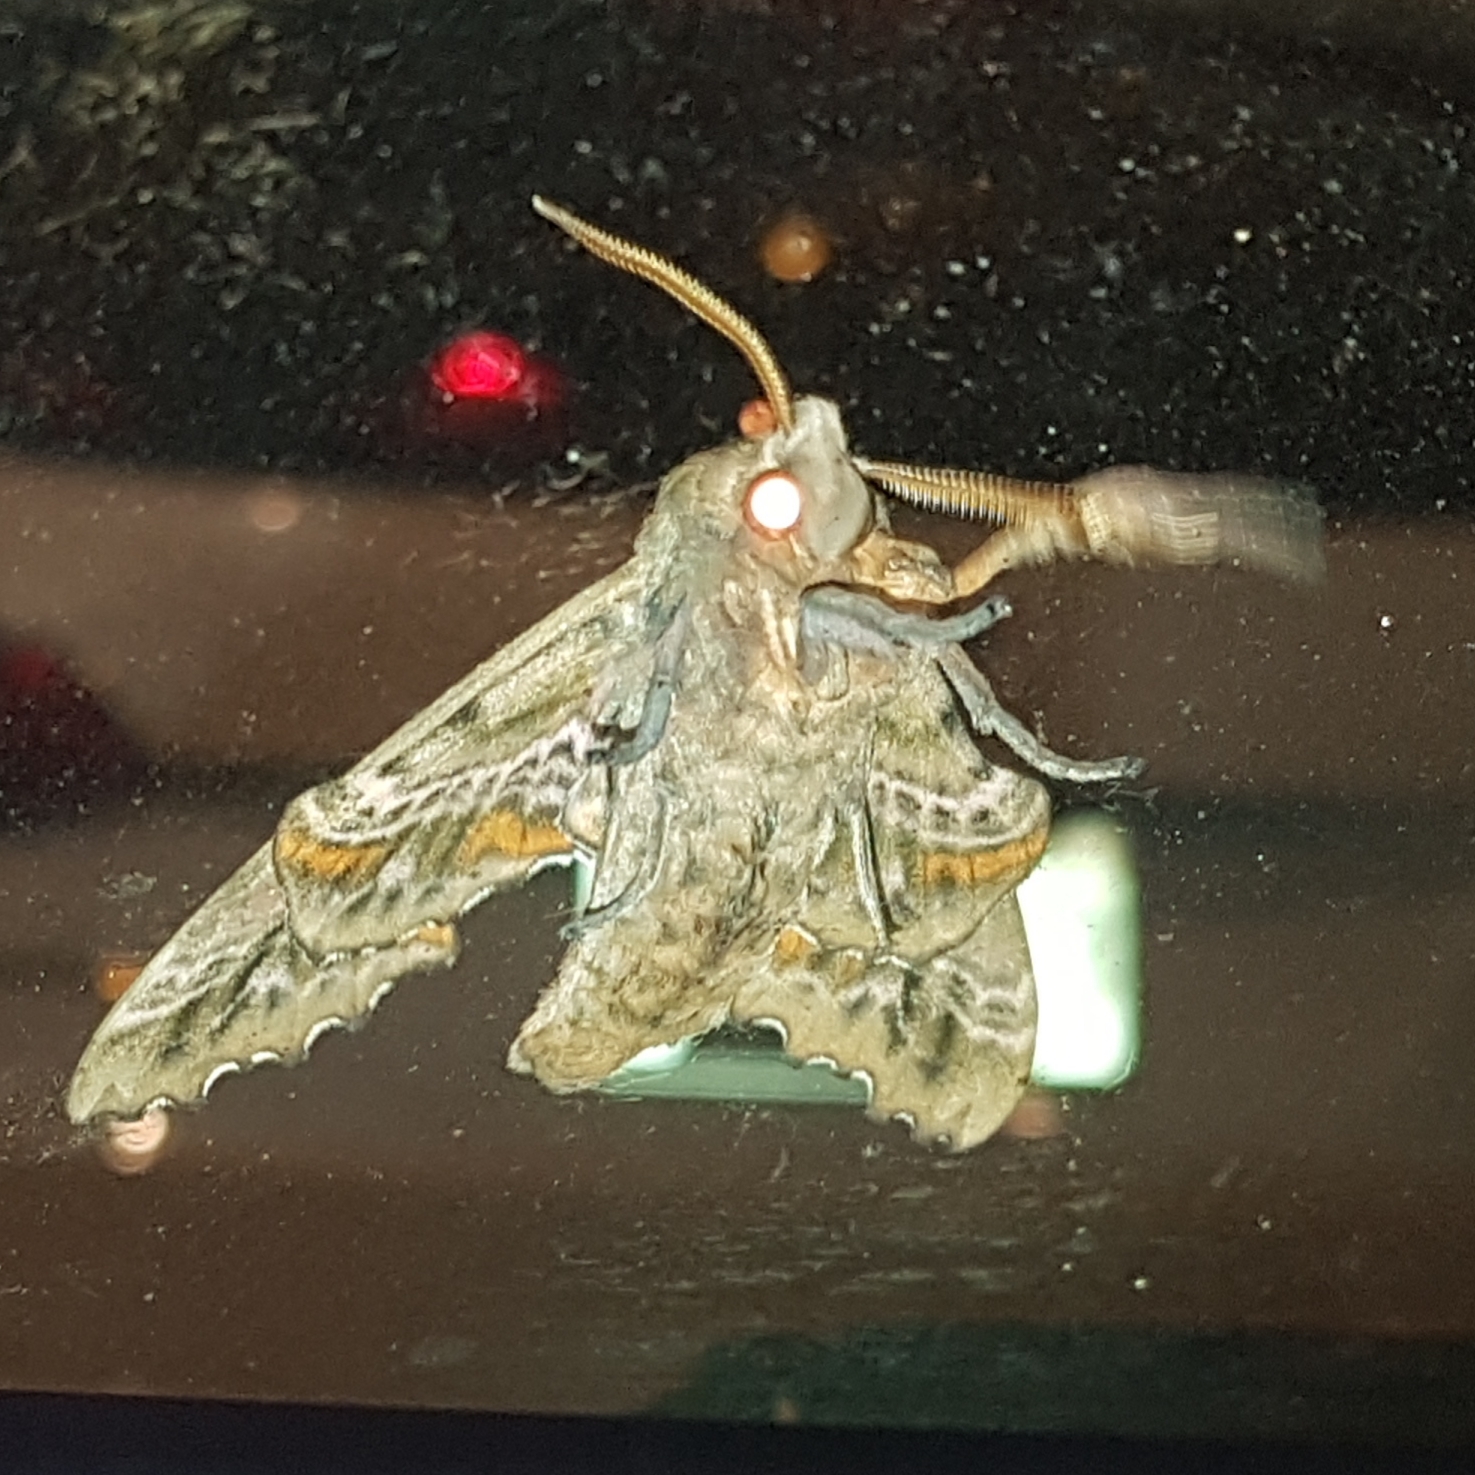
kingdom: Animalia
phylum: Arthropoda
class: Insecta
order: Lepidoptera
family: Sphingidae
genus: Paonias
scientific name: Paonias excaecata
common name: Blind-eyed sphinx
